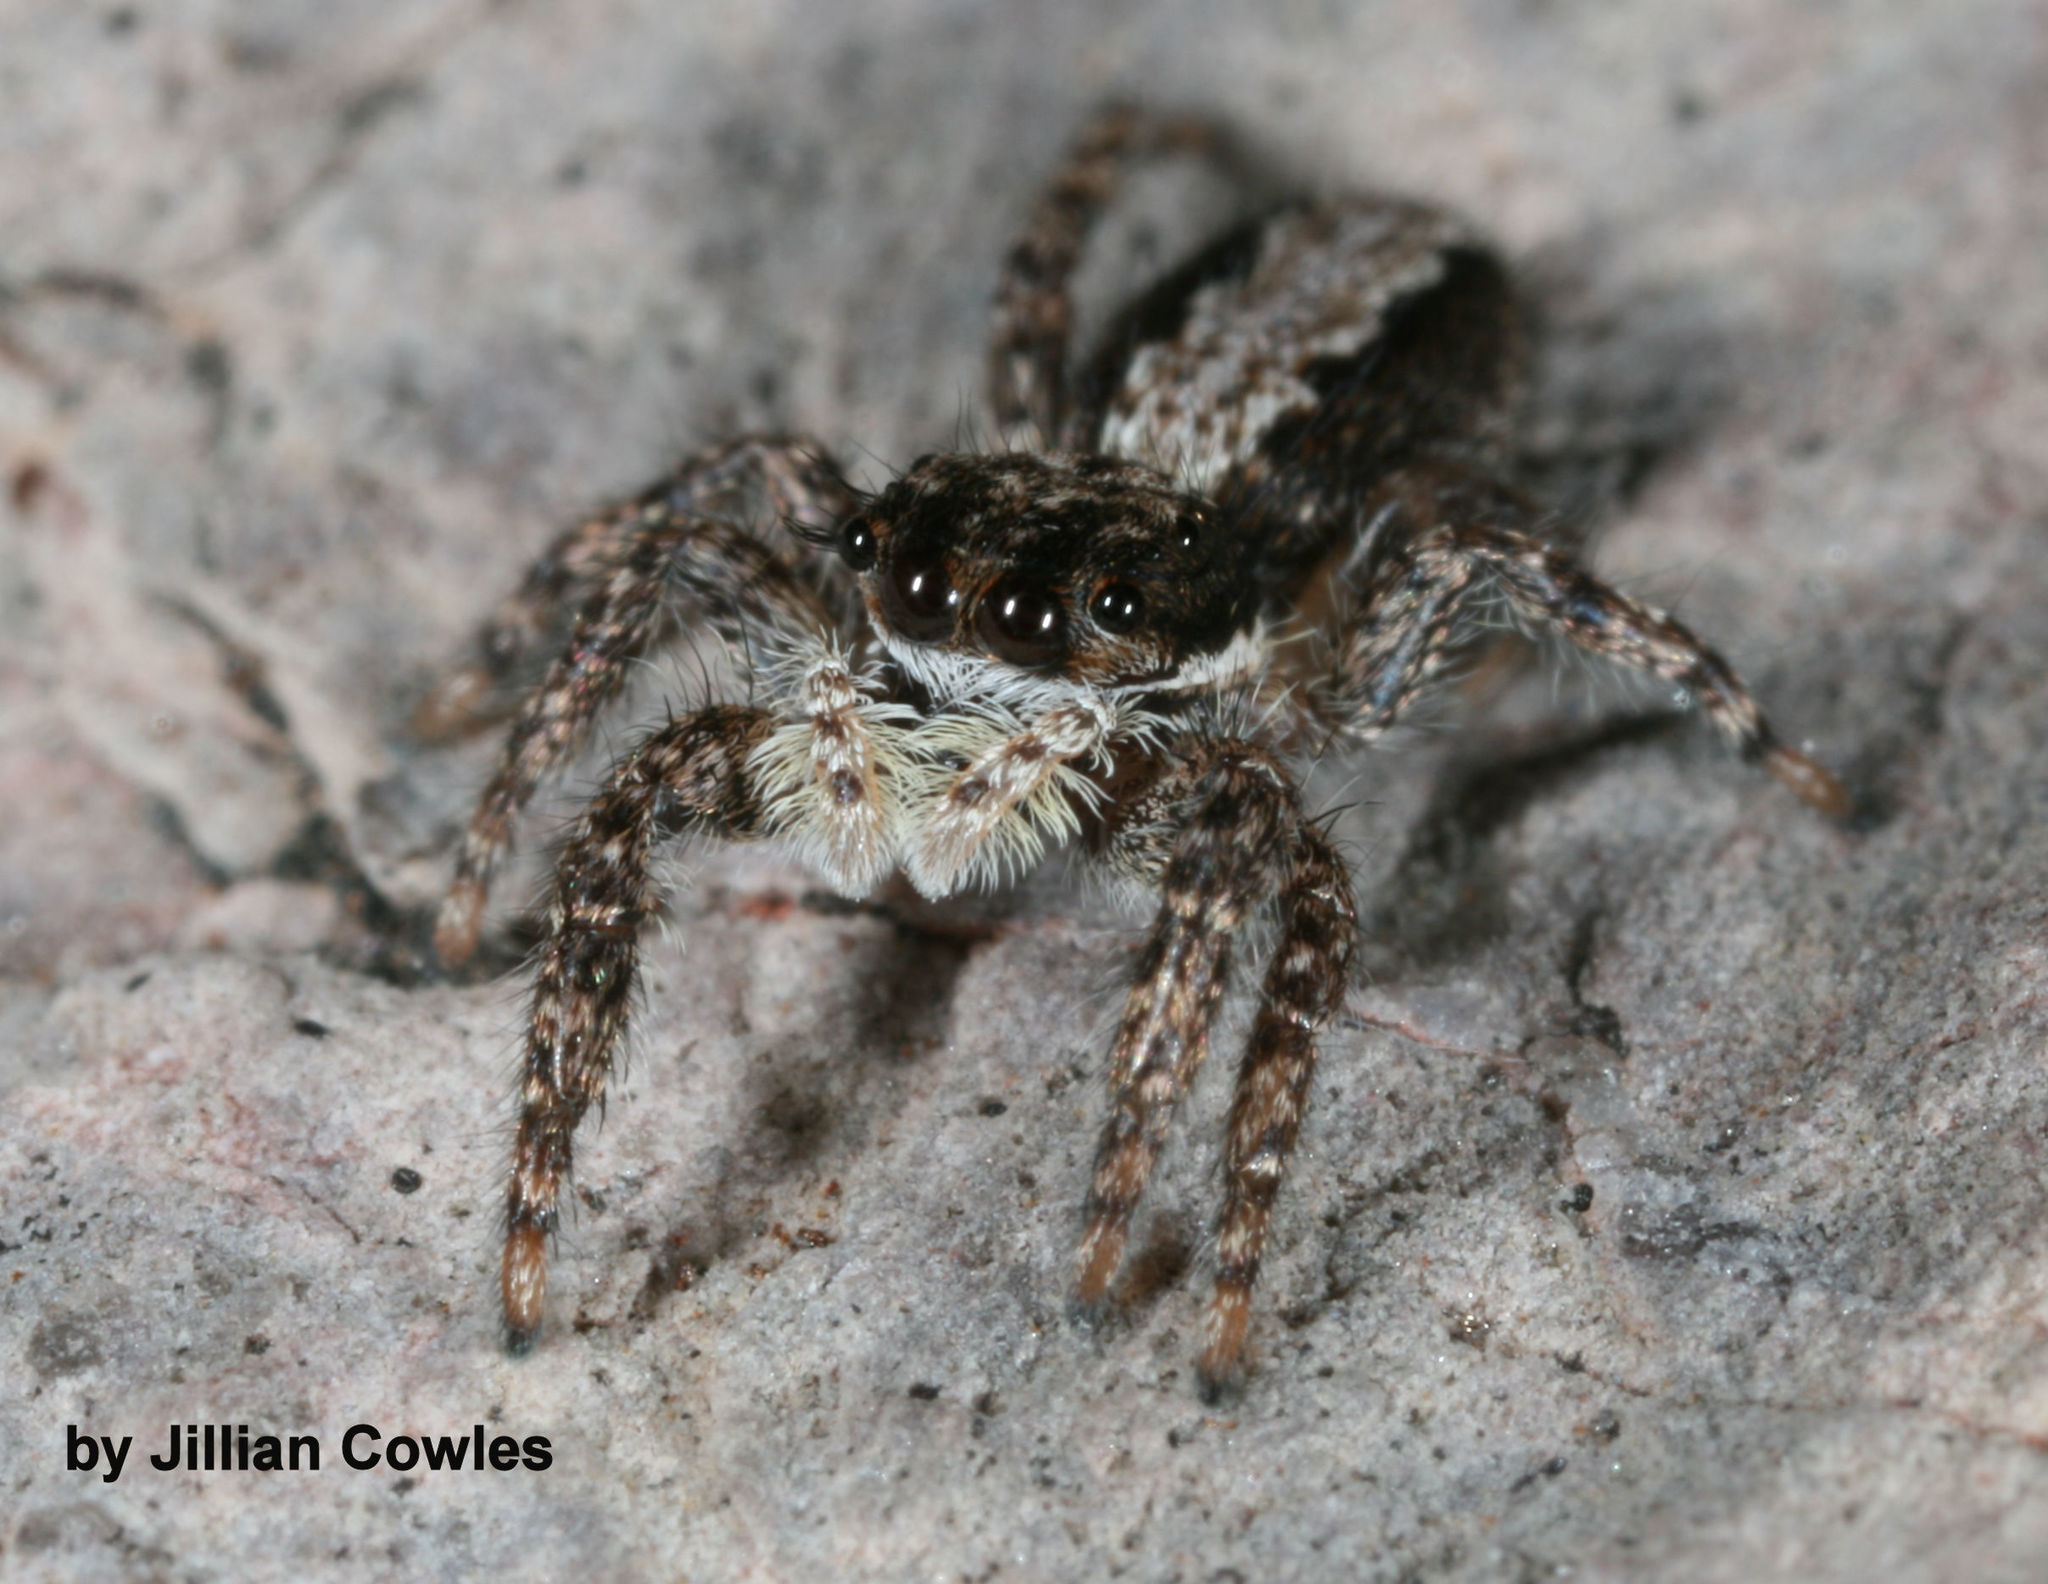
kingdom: Animalia
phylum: Arthropoda
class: Arachnida
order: Araneae
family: Salticidae
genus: Platycryptus
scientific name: Platycryptus californicus
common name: Jumping spiders
